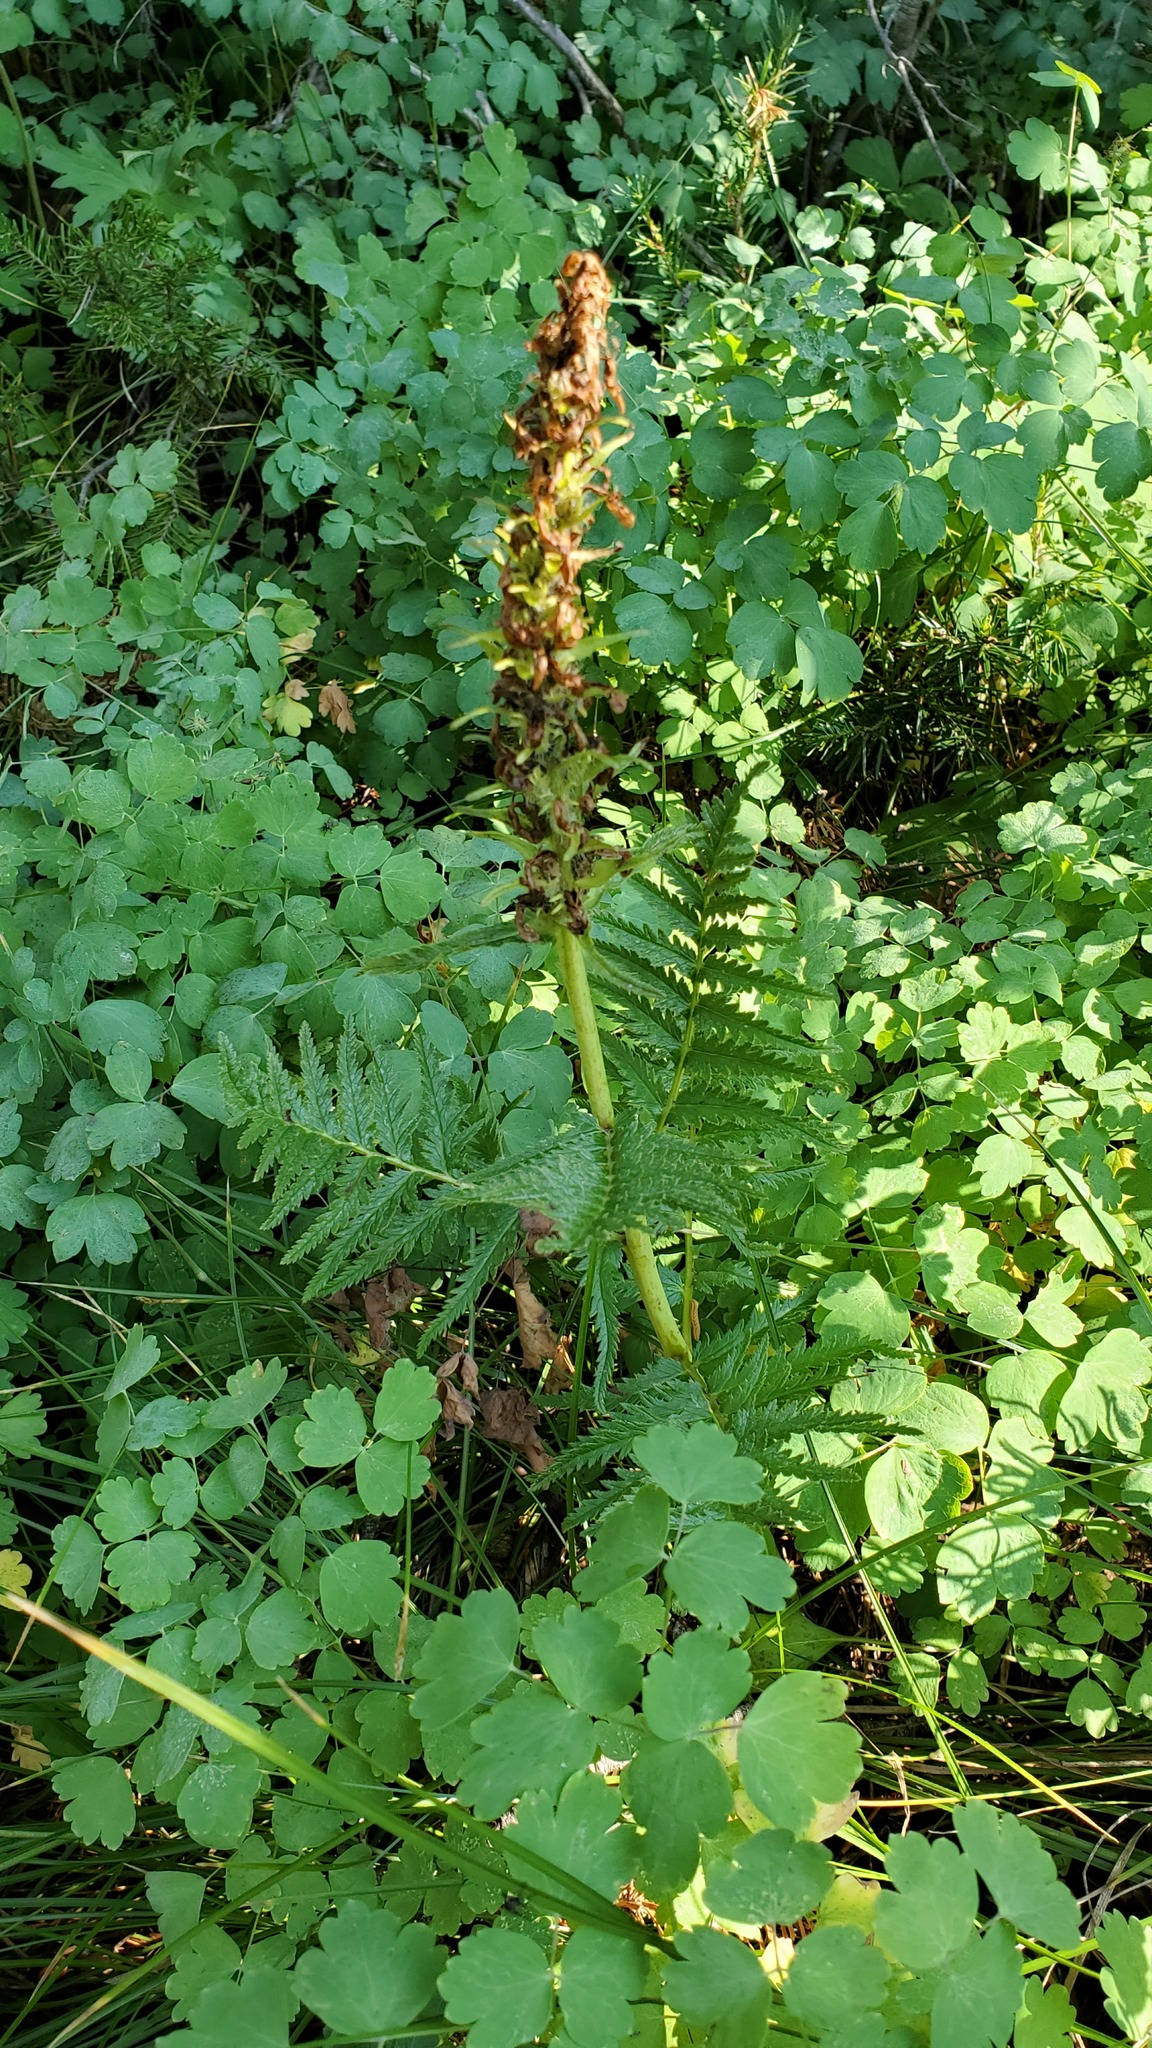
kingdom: Plantae
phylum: Tracheophyta
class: Magnoliopsida
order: Lamiales
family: Orobanchaceae
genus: Pedicularis
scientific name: Pedicularis bracteosa
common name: Bracted lousewort
